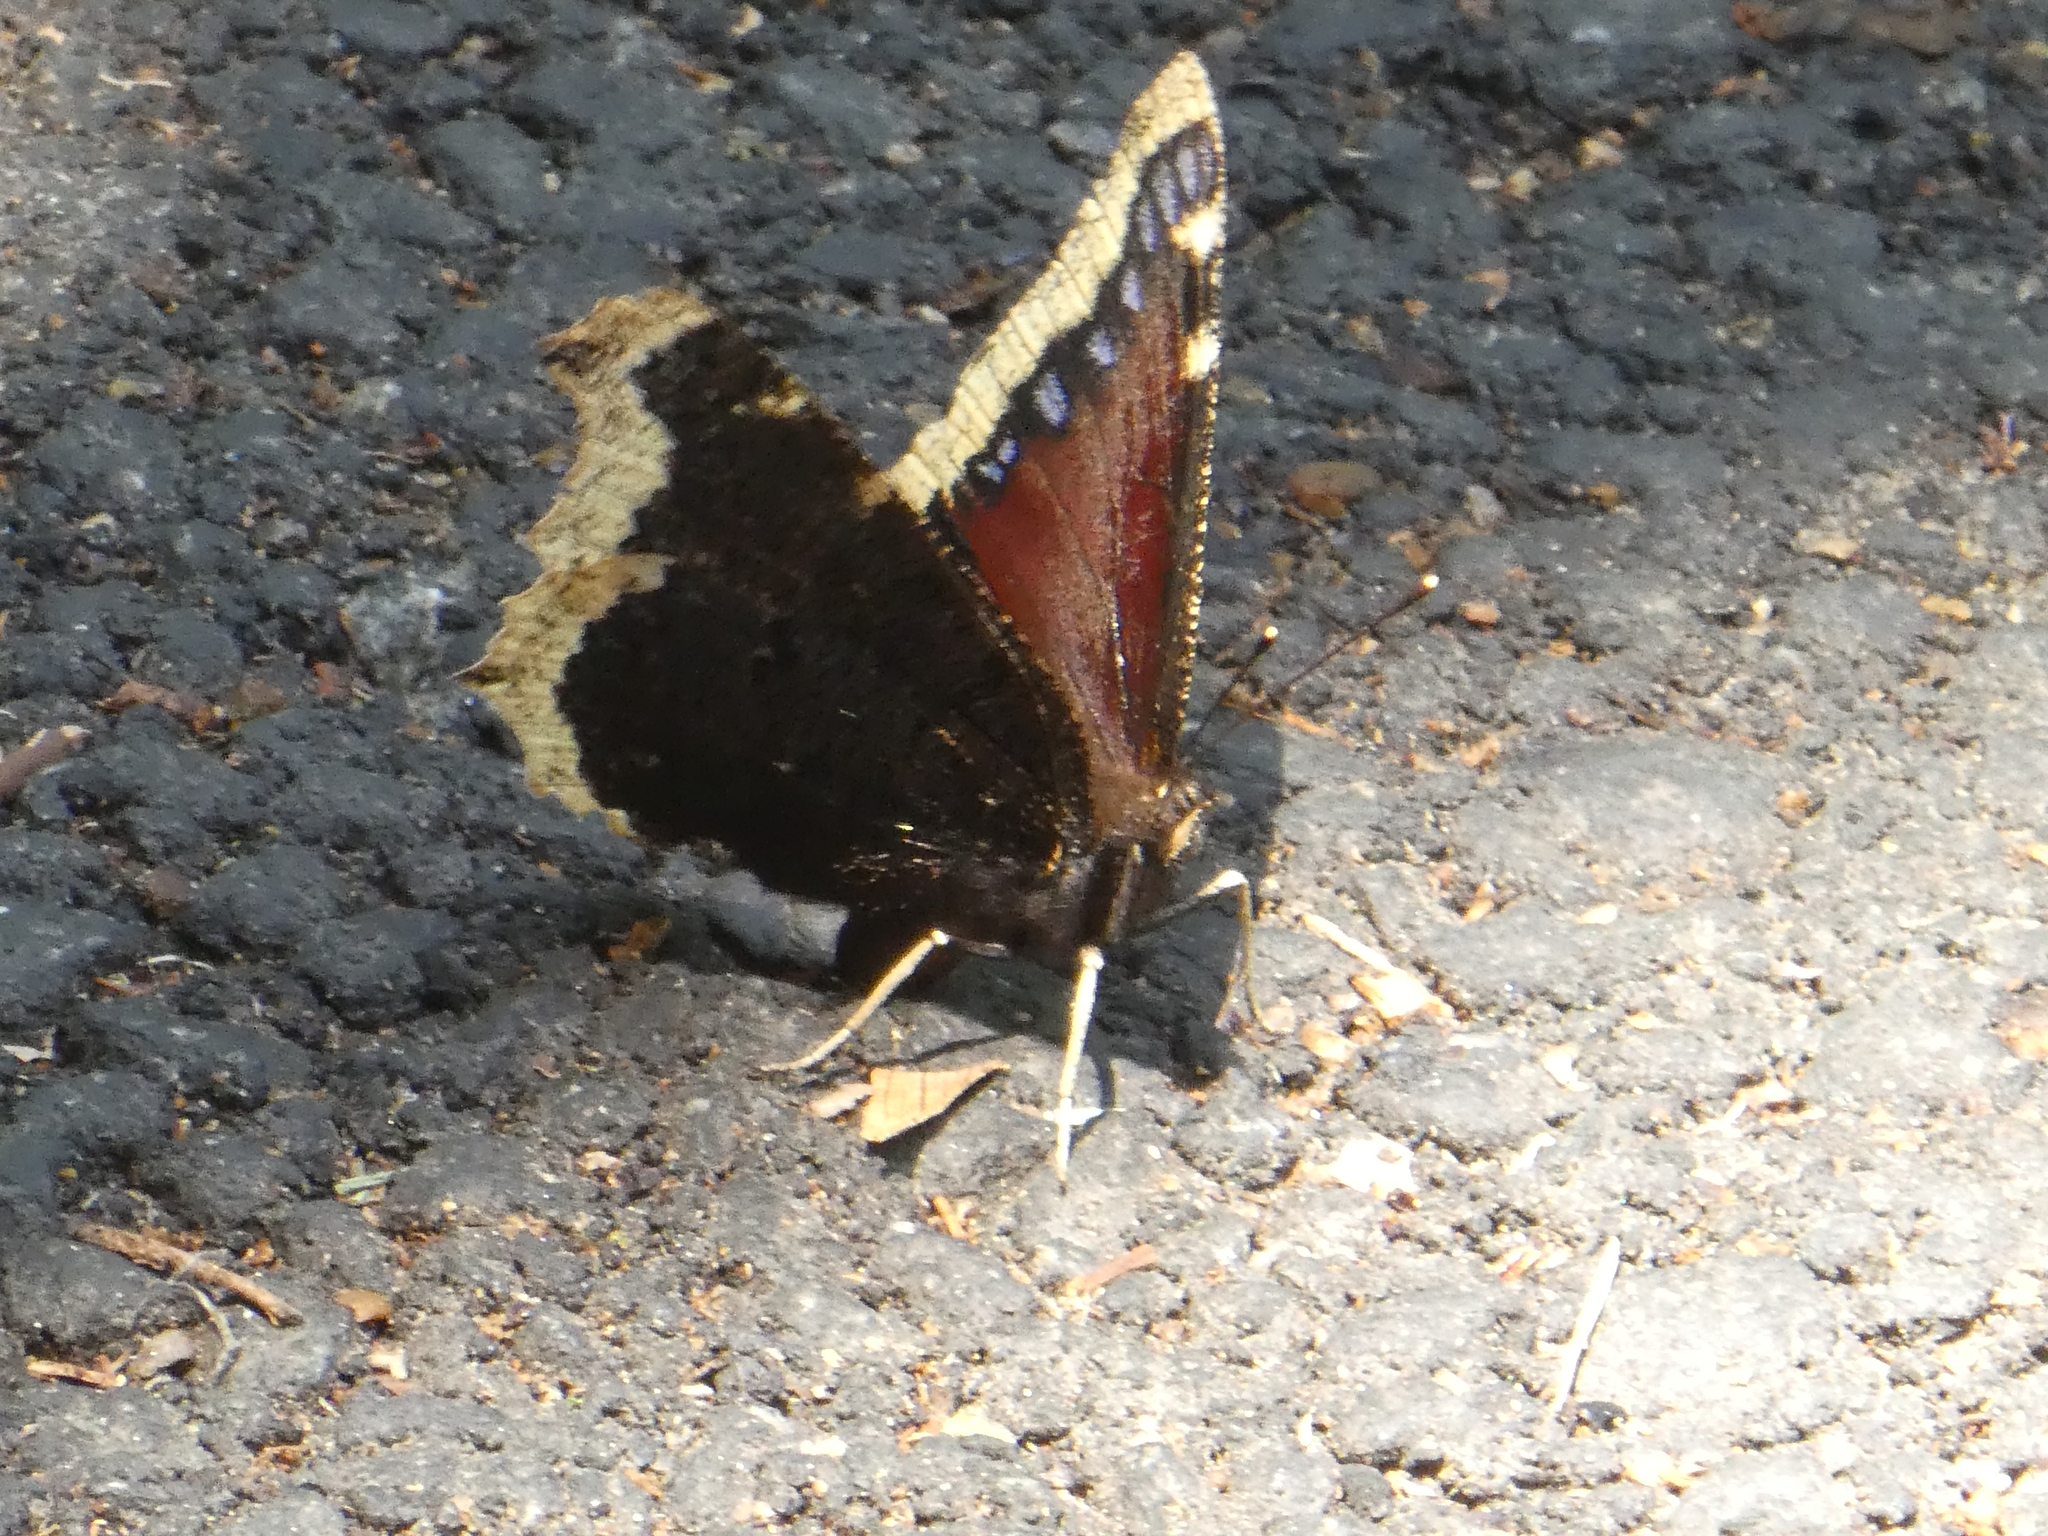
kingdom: Animalia
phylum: Arthropoda
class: Insecta
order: Lepidoptera
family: Nymphalidae
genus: Nymphalis
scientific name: Nymphalis antiopa
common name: Camberwell beauty
